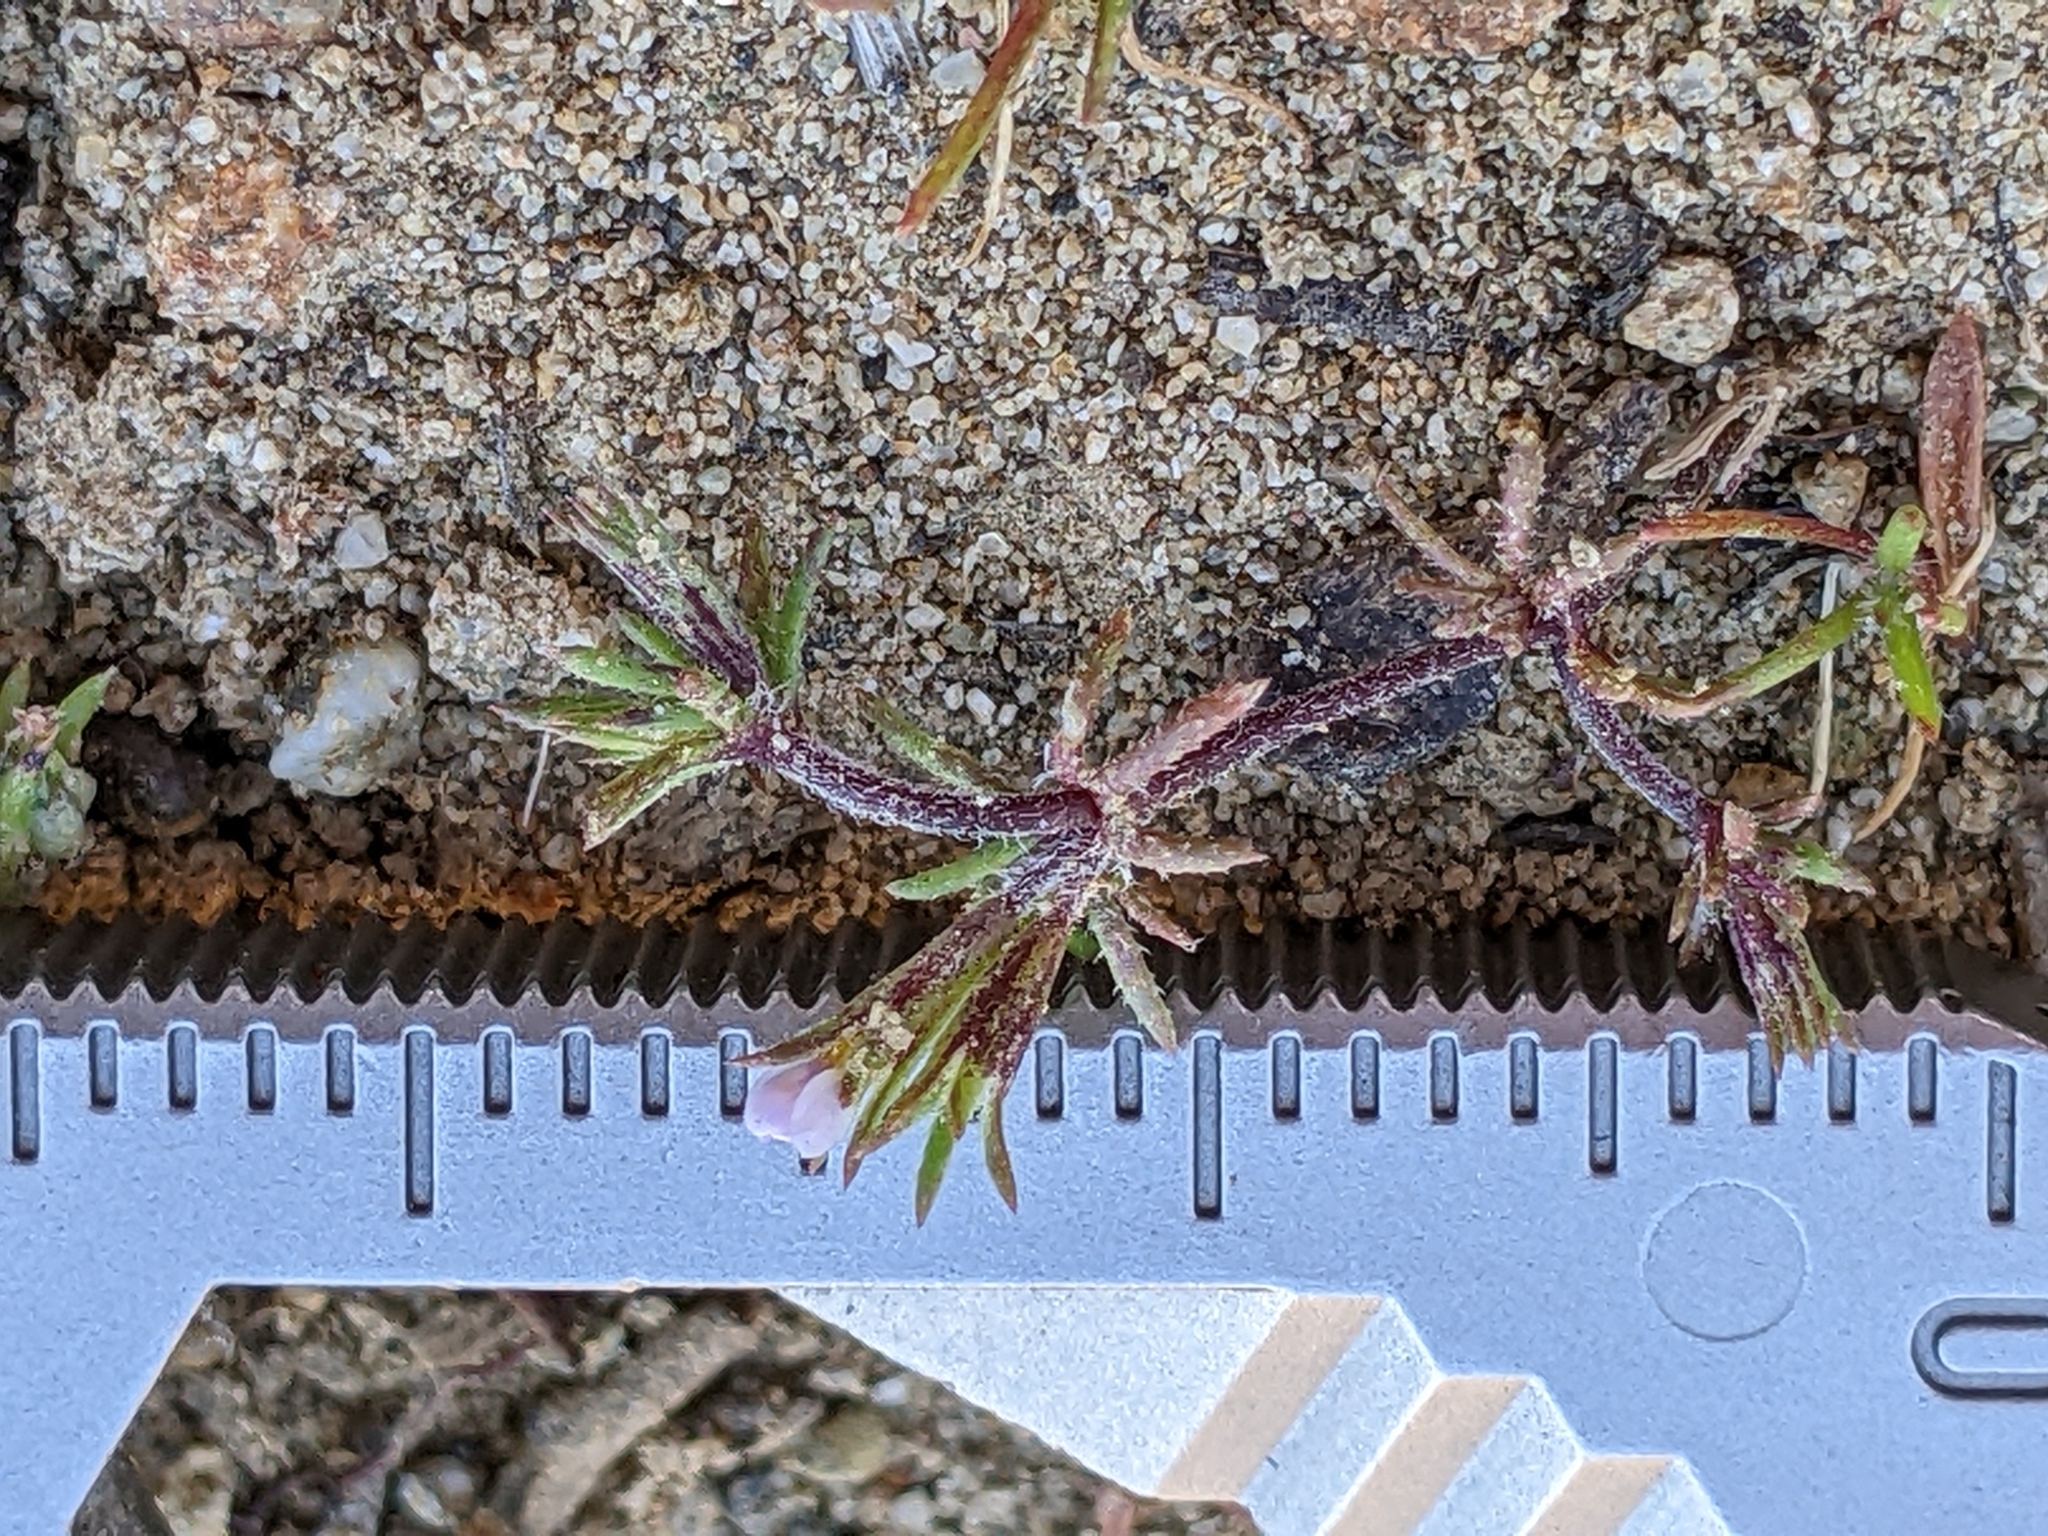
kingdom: Plantae
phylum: Tracheophyta
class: Magnoliopsida
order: Ericales
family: Polemoniaceae
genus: Leptosiphon
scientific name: Leptosiphon pygmaeus
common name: Pygmy linanthus
